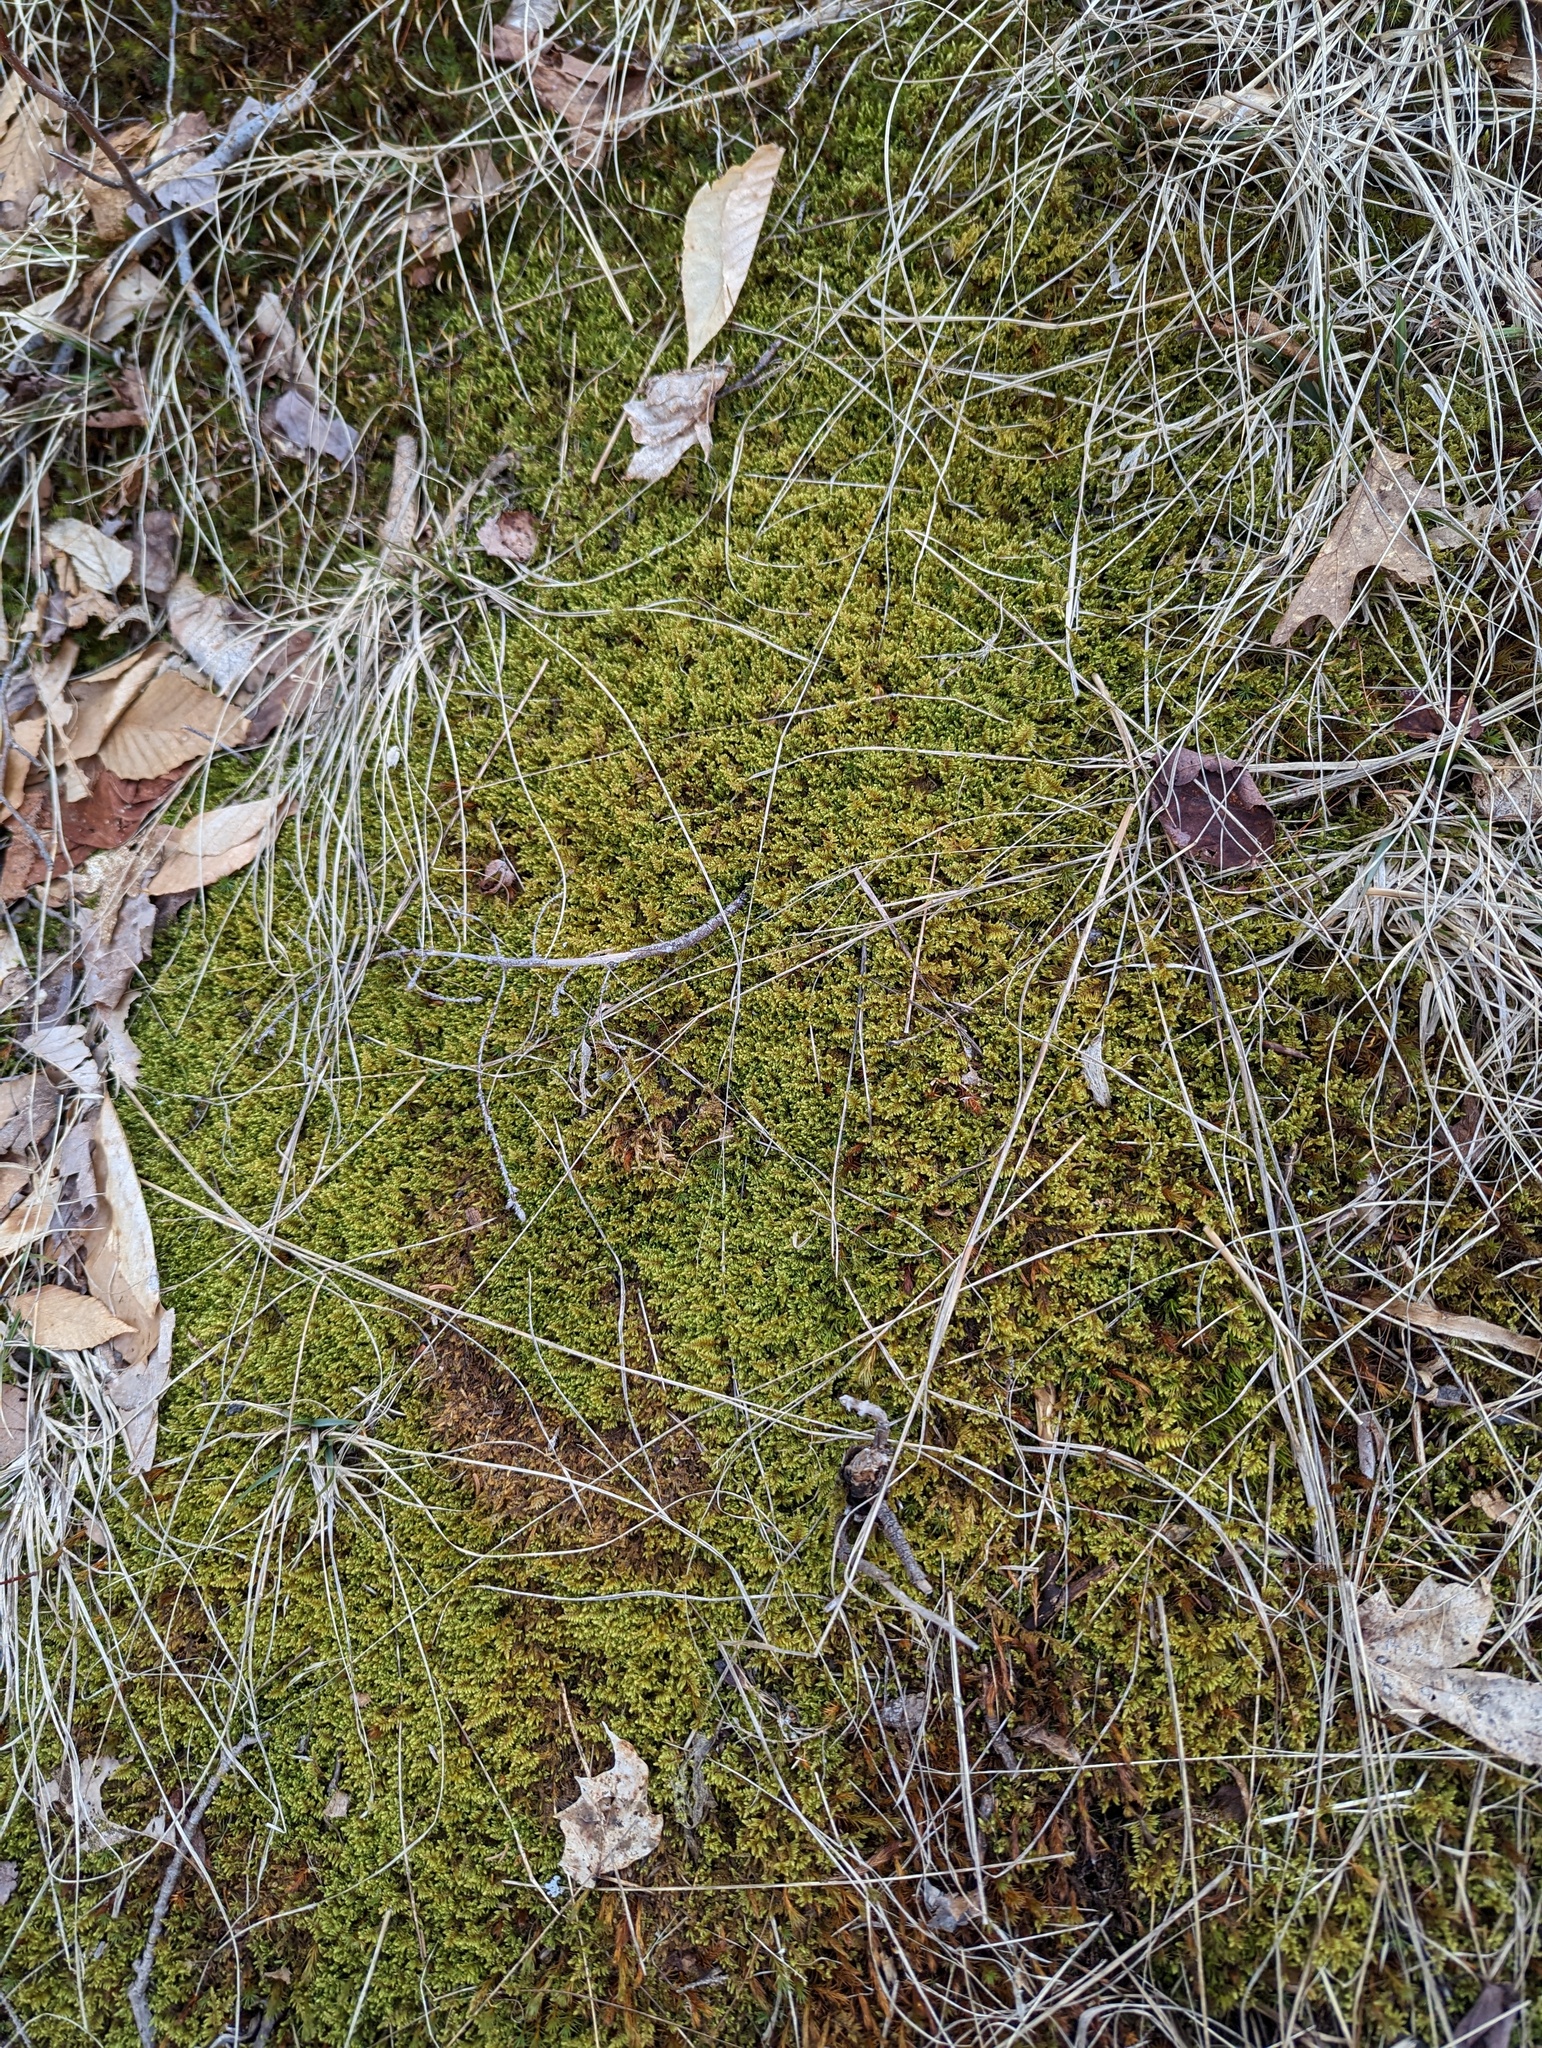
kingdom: Plantae
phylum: Bryophyta
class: Bryopsida
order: Hypnales
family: Callicladiaceae
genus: Callicladium
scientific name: Callicladium imponens
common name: Brocade moss
